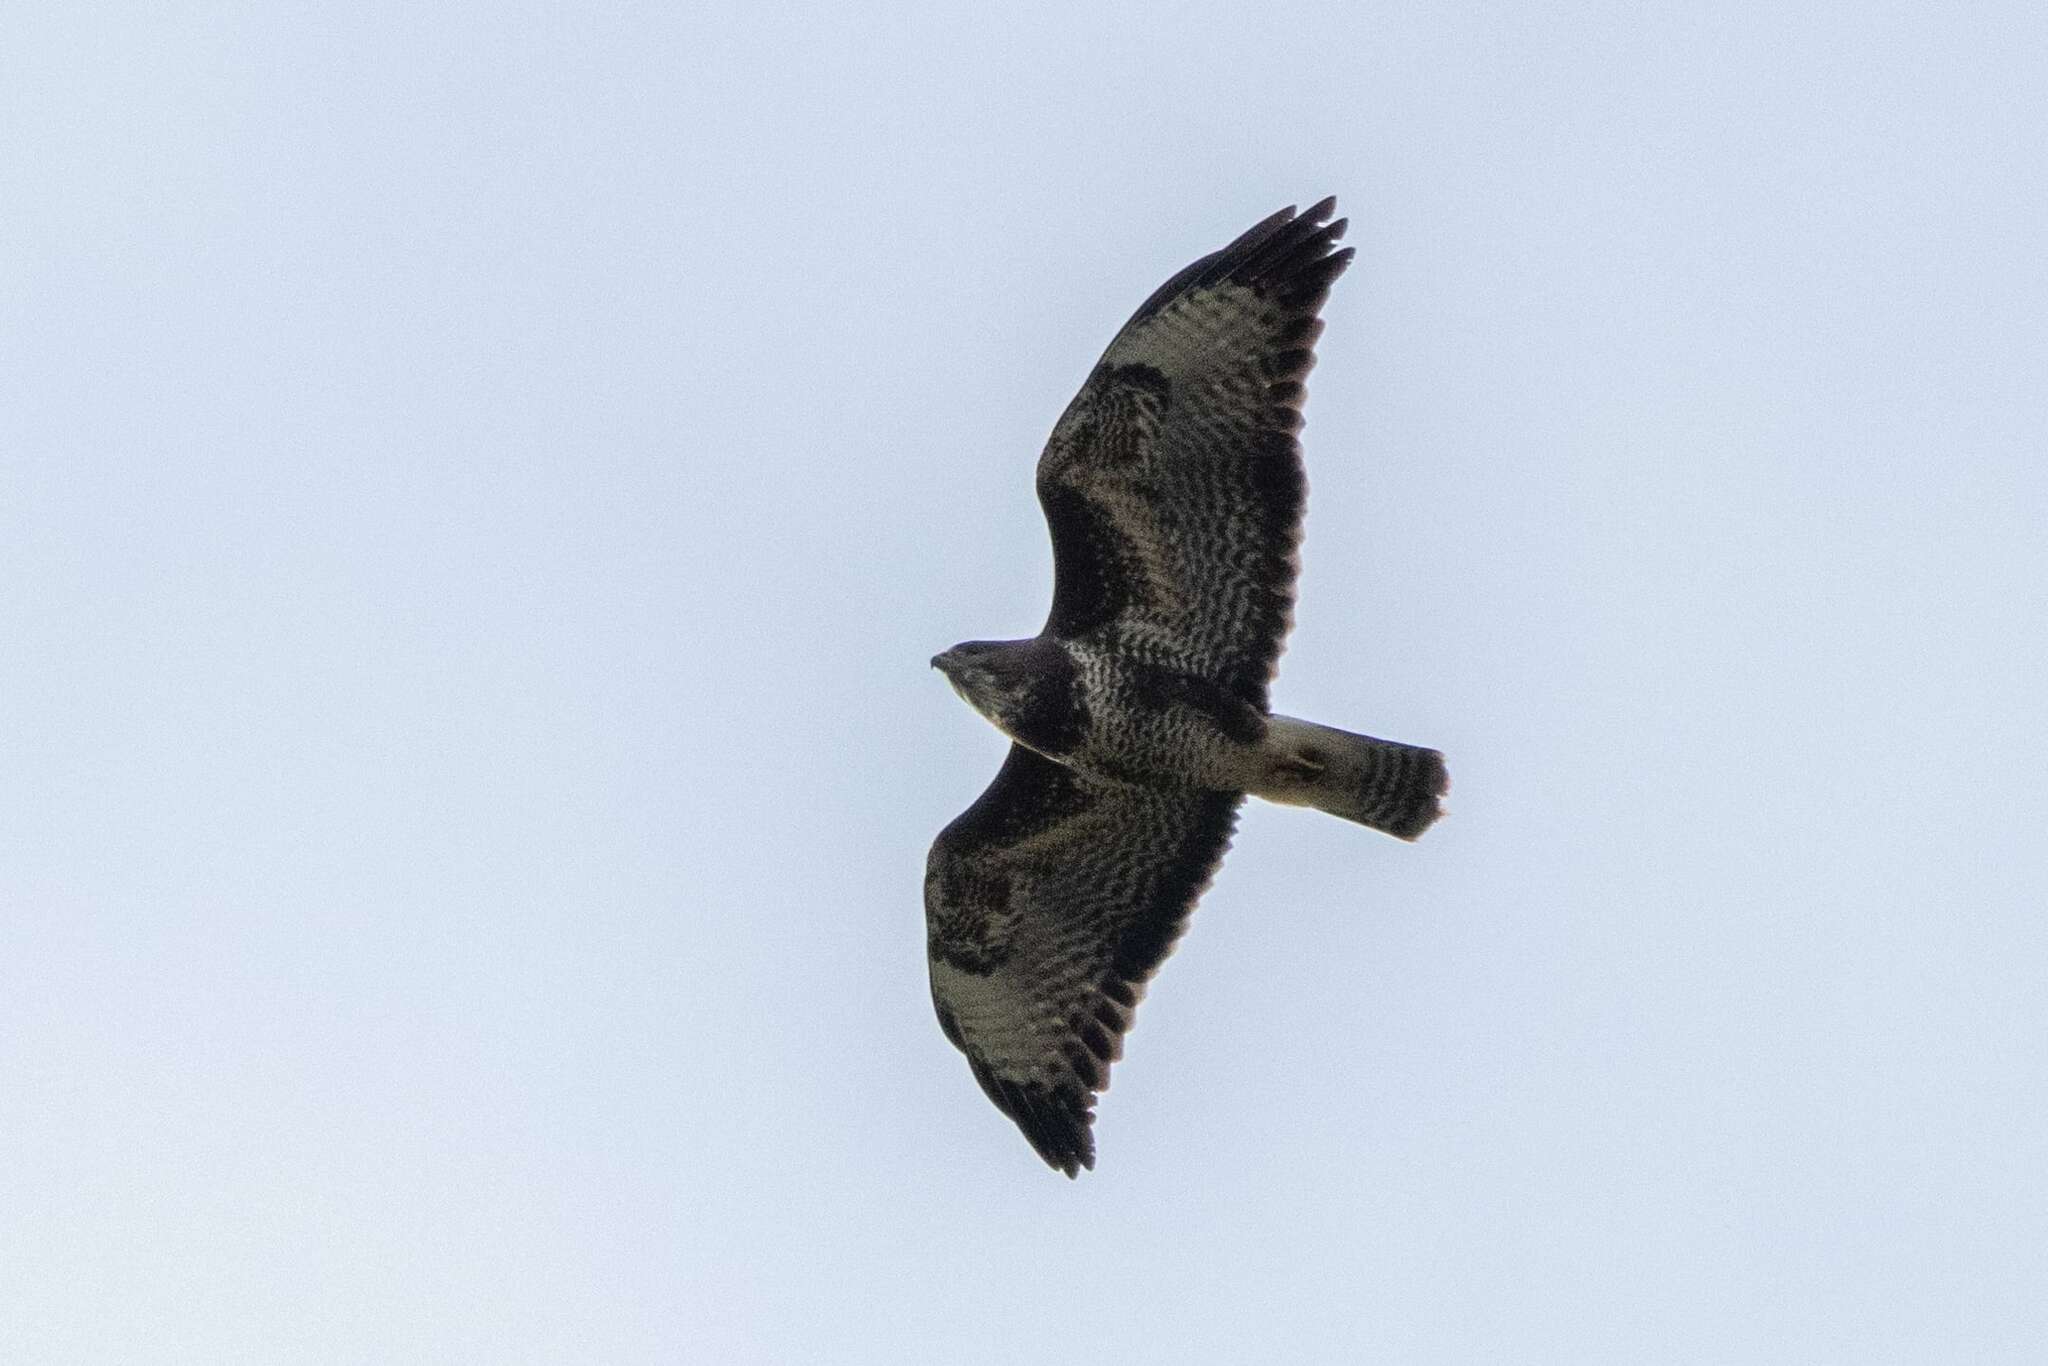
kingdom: Animalia
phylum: Chordata
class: Aves
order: Accipitriformes
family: Accipitridae
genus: Buteo
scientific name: Buteo buteo
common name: Common buzzard
